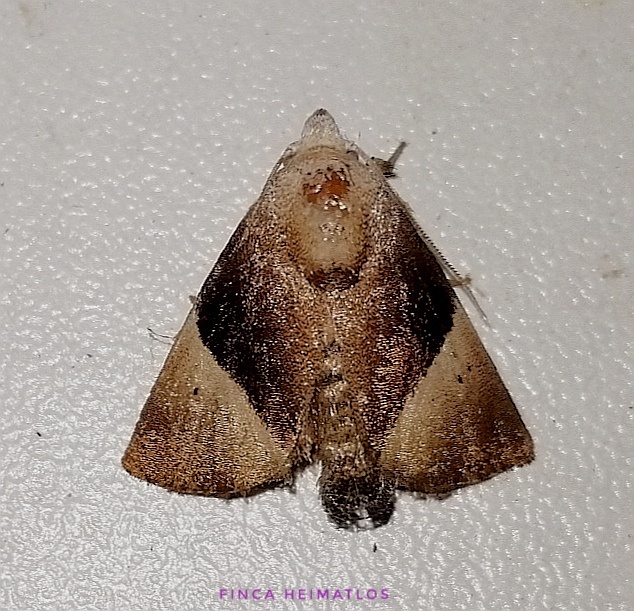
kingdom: Animalia
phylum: Arthropoda
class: Insecta
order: Lepidoptera
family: Limacodidae
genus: Dichromapteryx
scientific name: Dichromapteryx didyma
